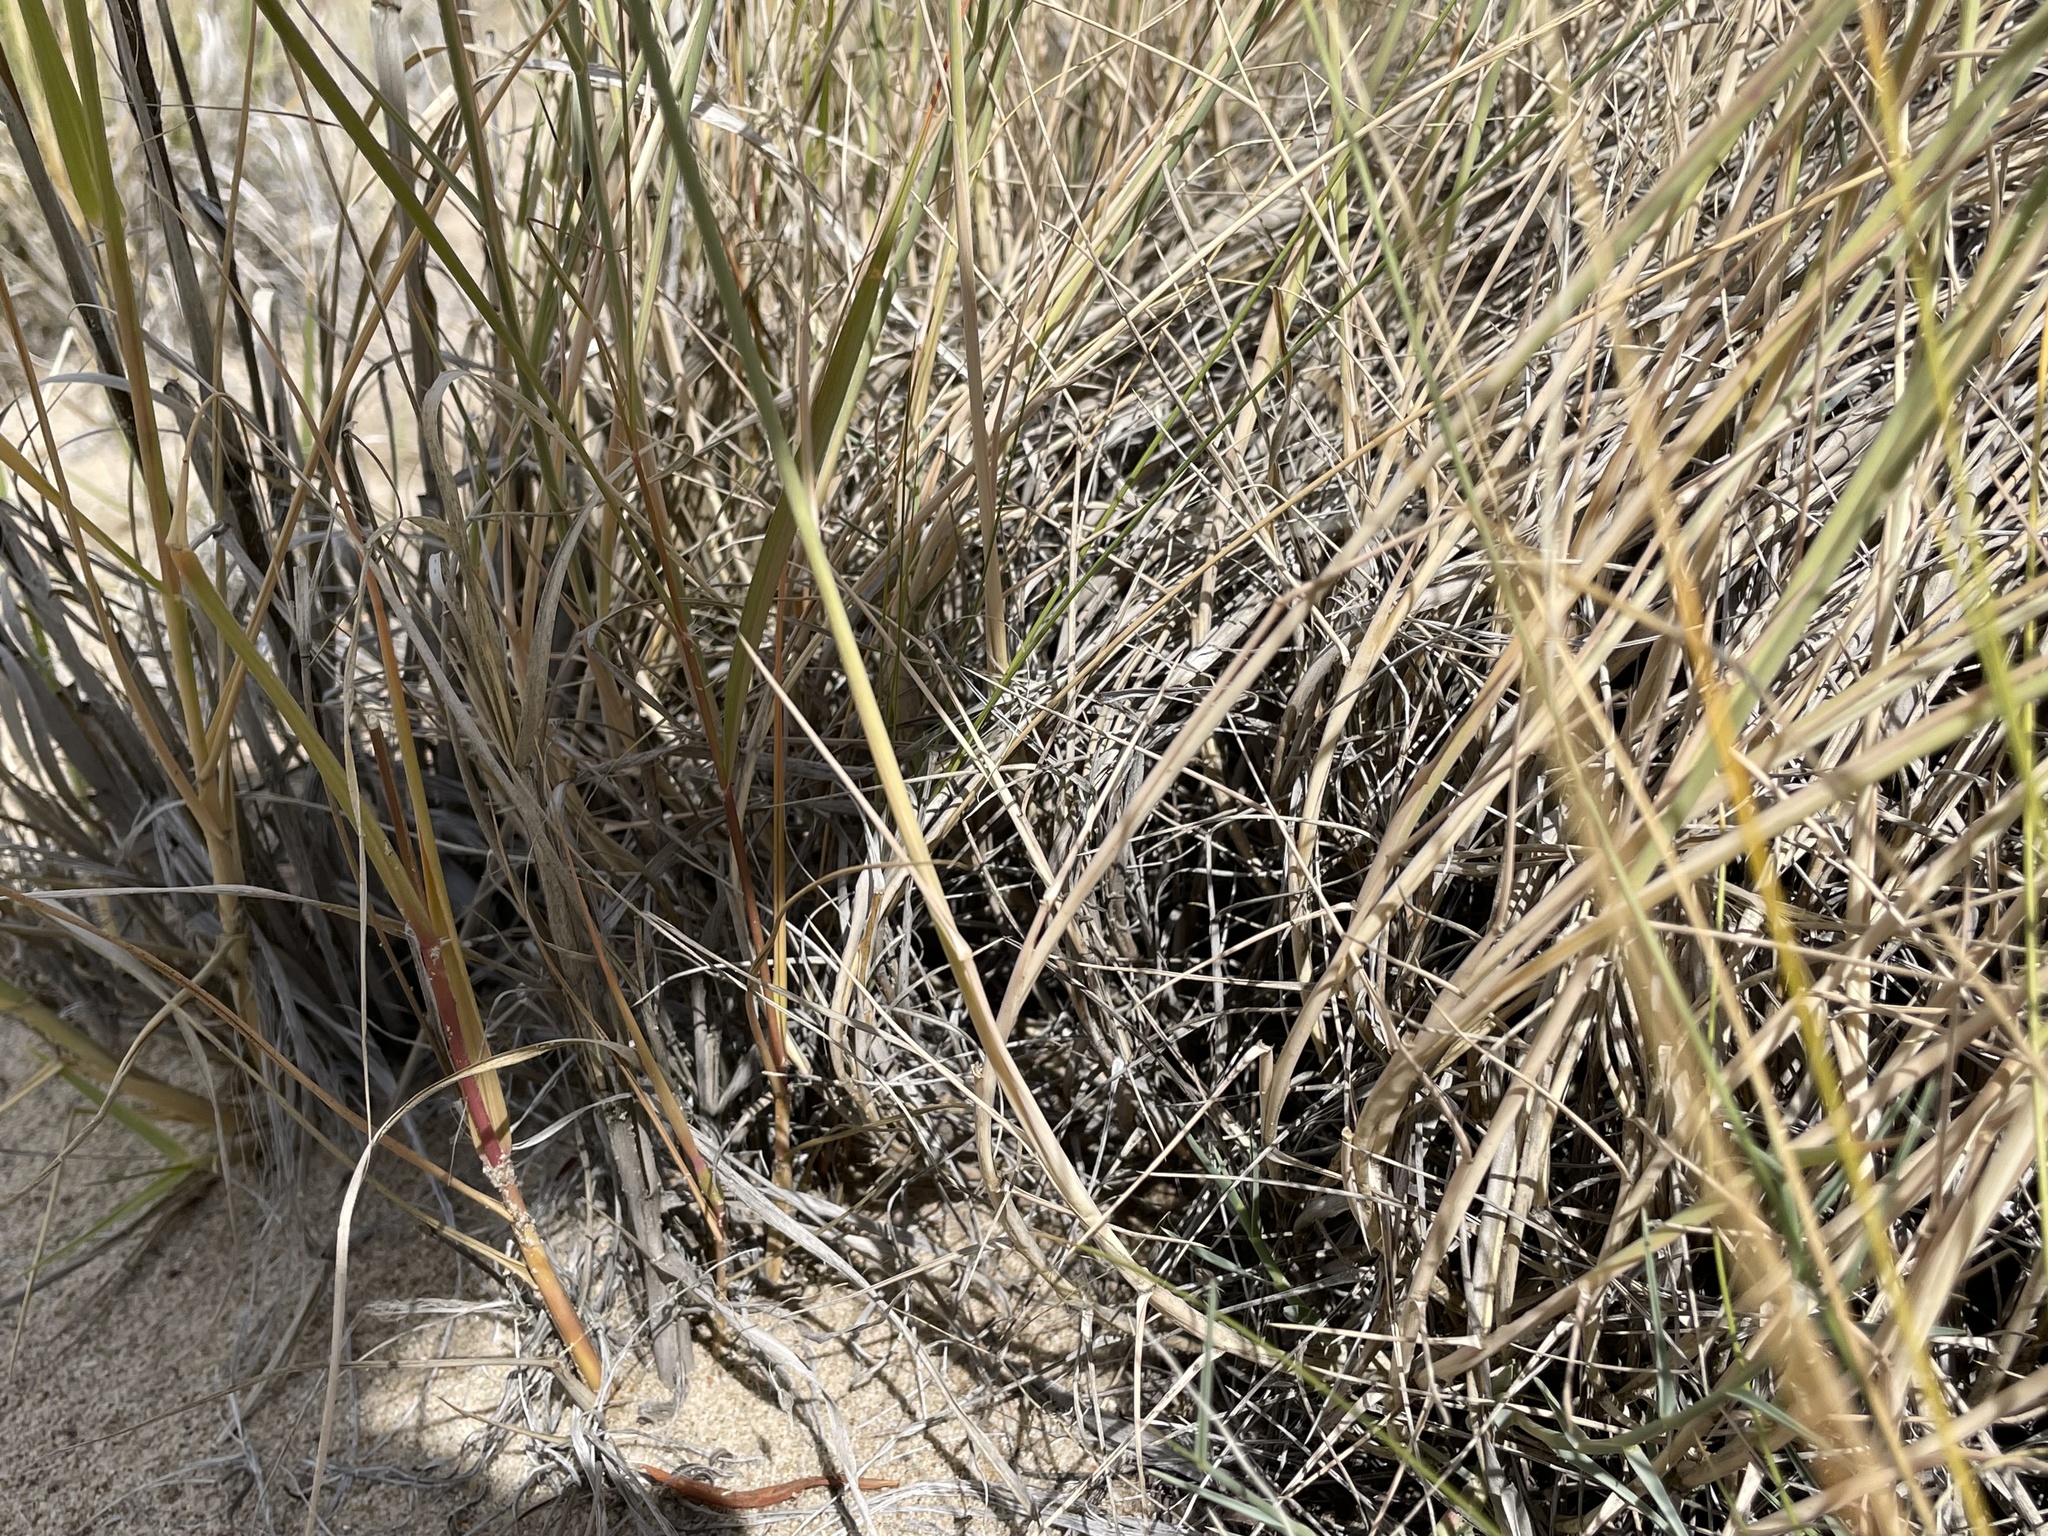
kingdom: Plantae
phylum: Tracheophyta
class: Liliopsida
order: Poales
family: Poaceae
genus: Muhlenbergia
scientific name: Muhlenbergia pungens
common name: Sandhill muhly
